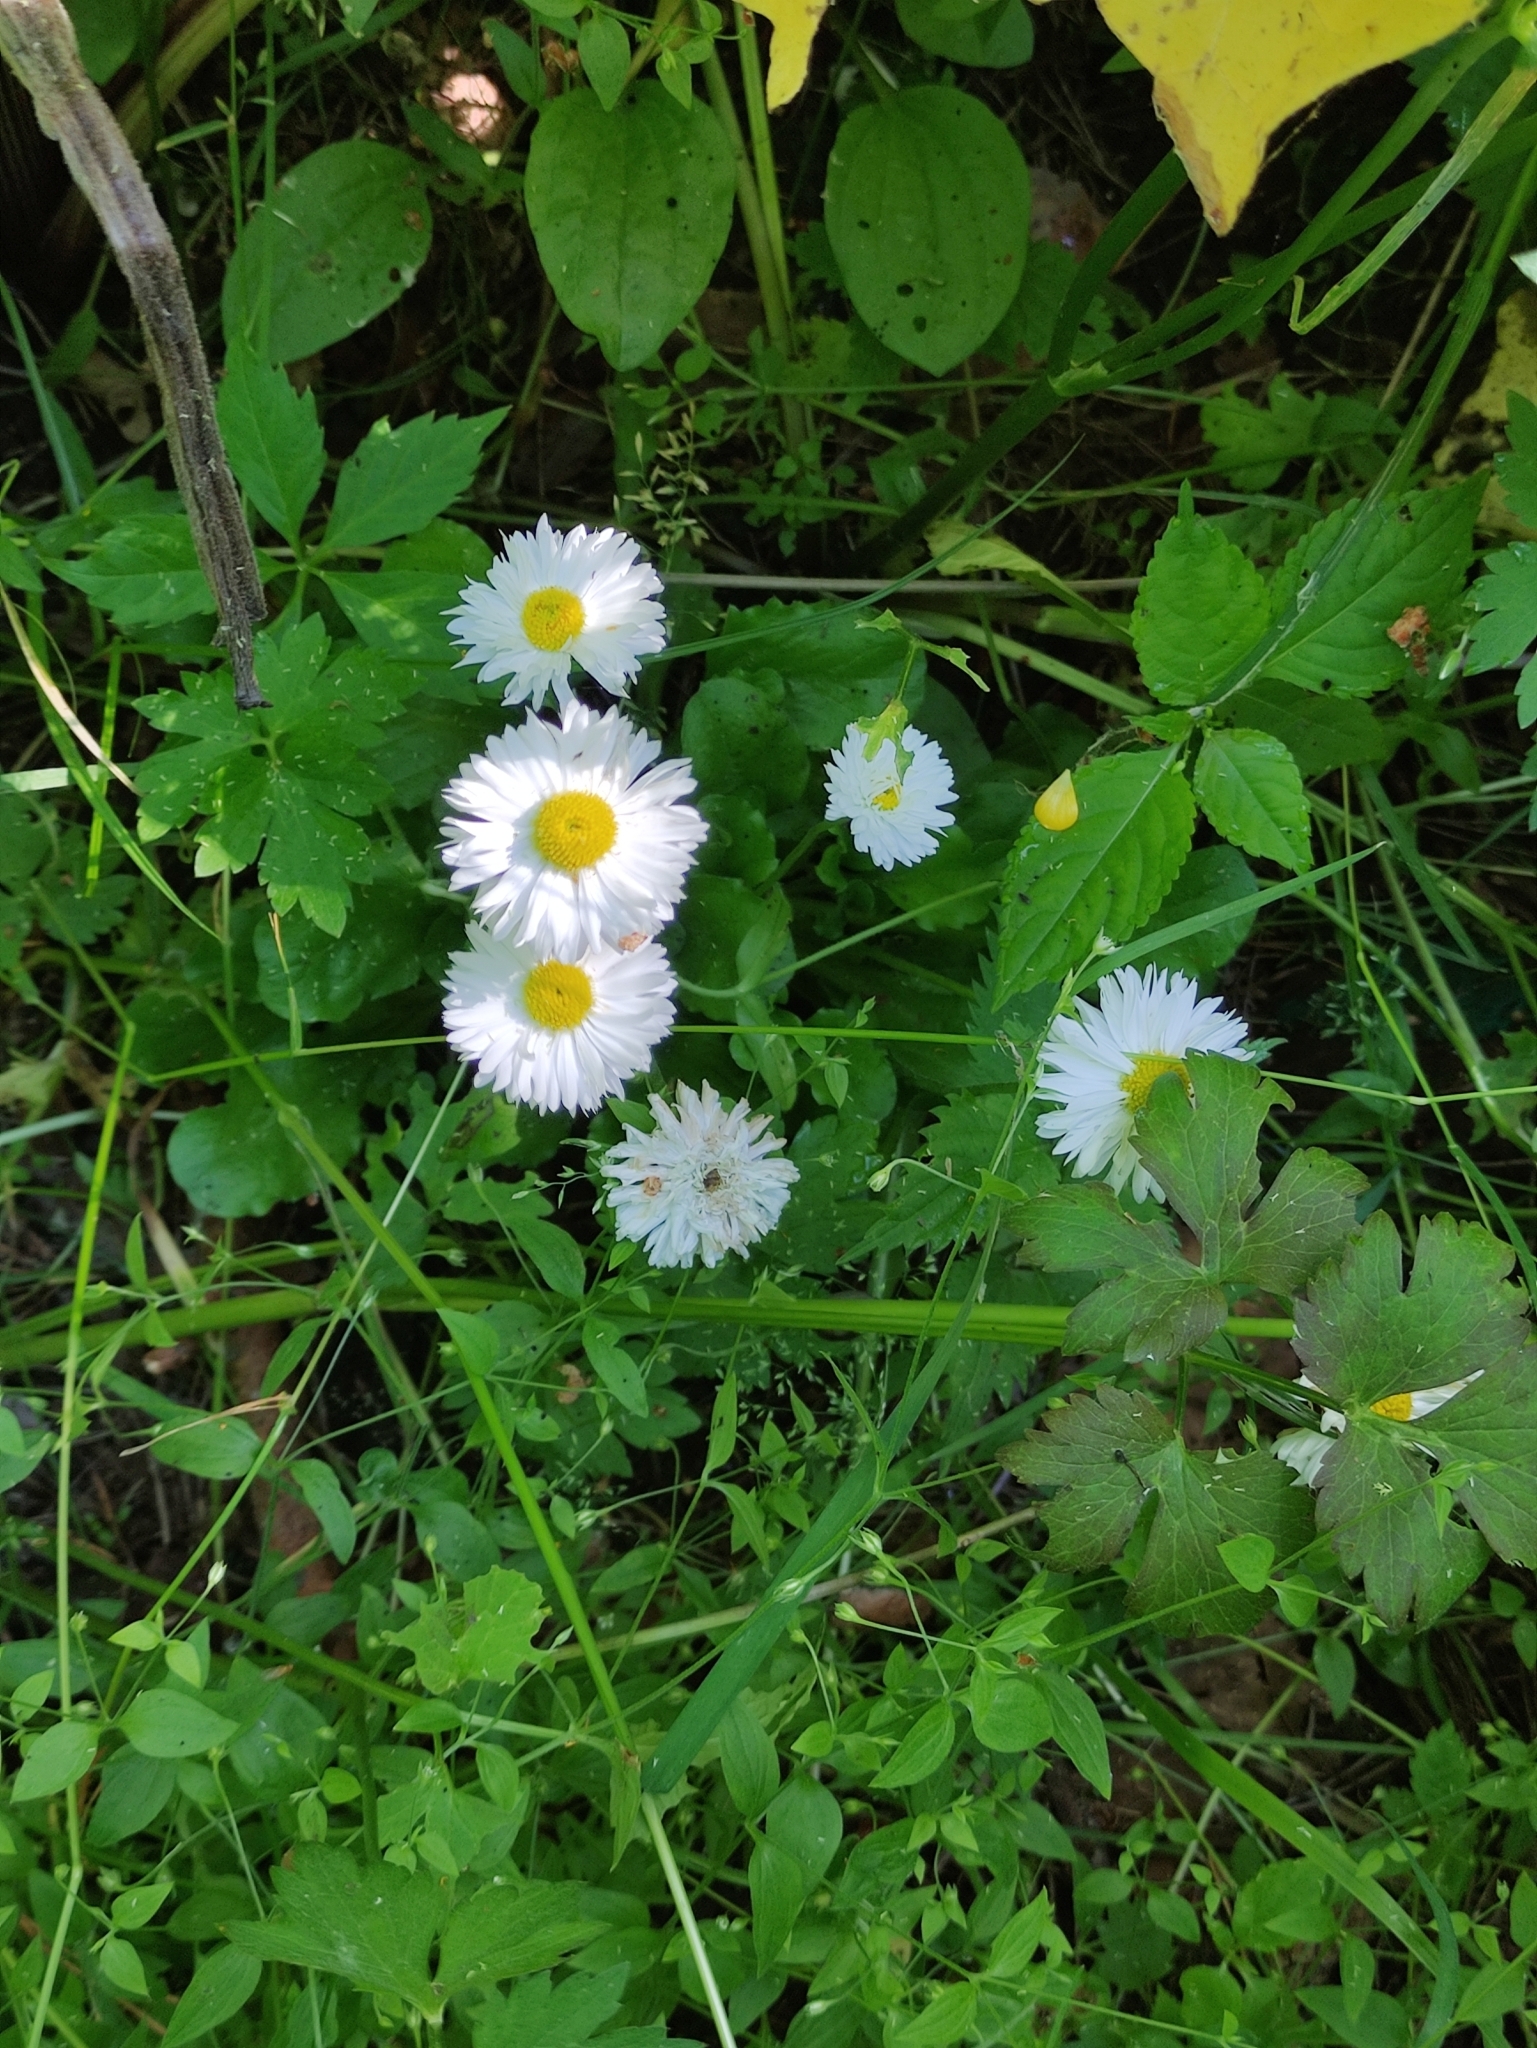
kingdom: Plantae
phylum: Tracheophyta
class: Magnoliopsida
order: Asterales
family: Asteraceae
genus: Bellis
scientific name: Bellis perennis
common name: Lawndaisy
